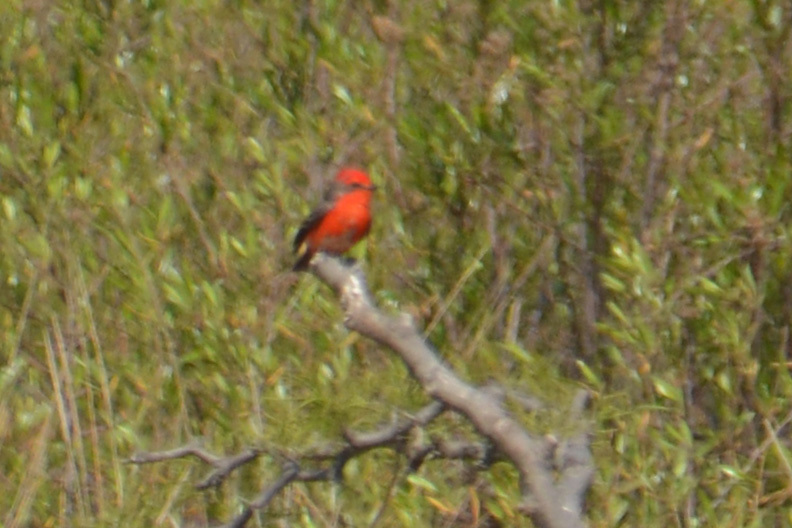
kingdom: Animalia
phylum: Chordata
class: Aves
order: Passeriformes
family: Tyrannidae
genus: Pyrocephalus
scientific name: Pyrocephalus rubinus
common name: Vermilion flycatcher
